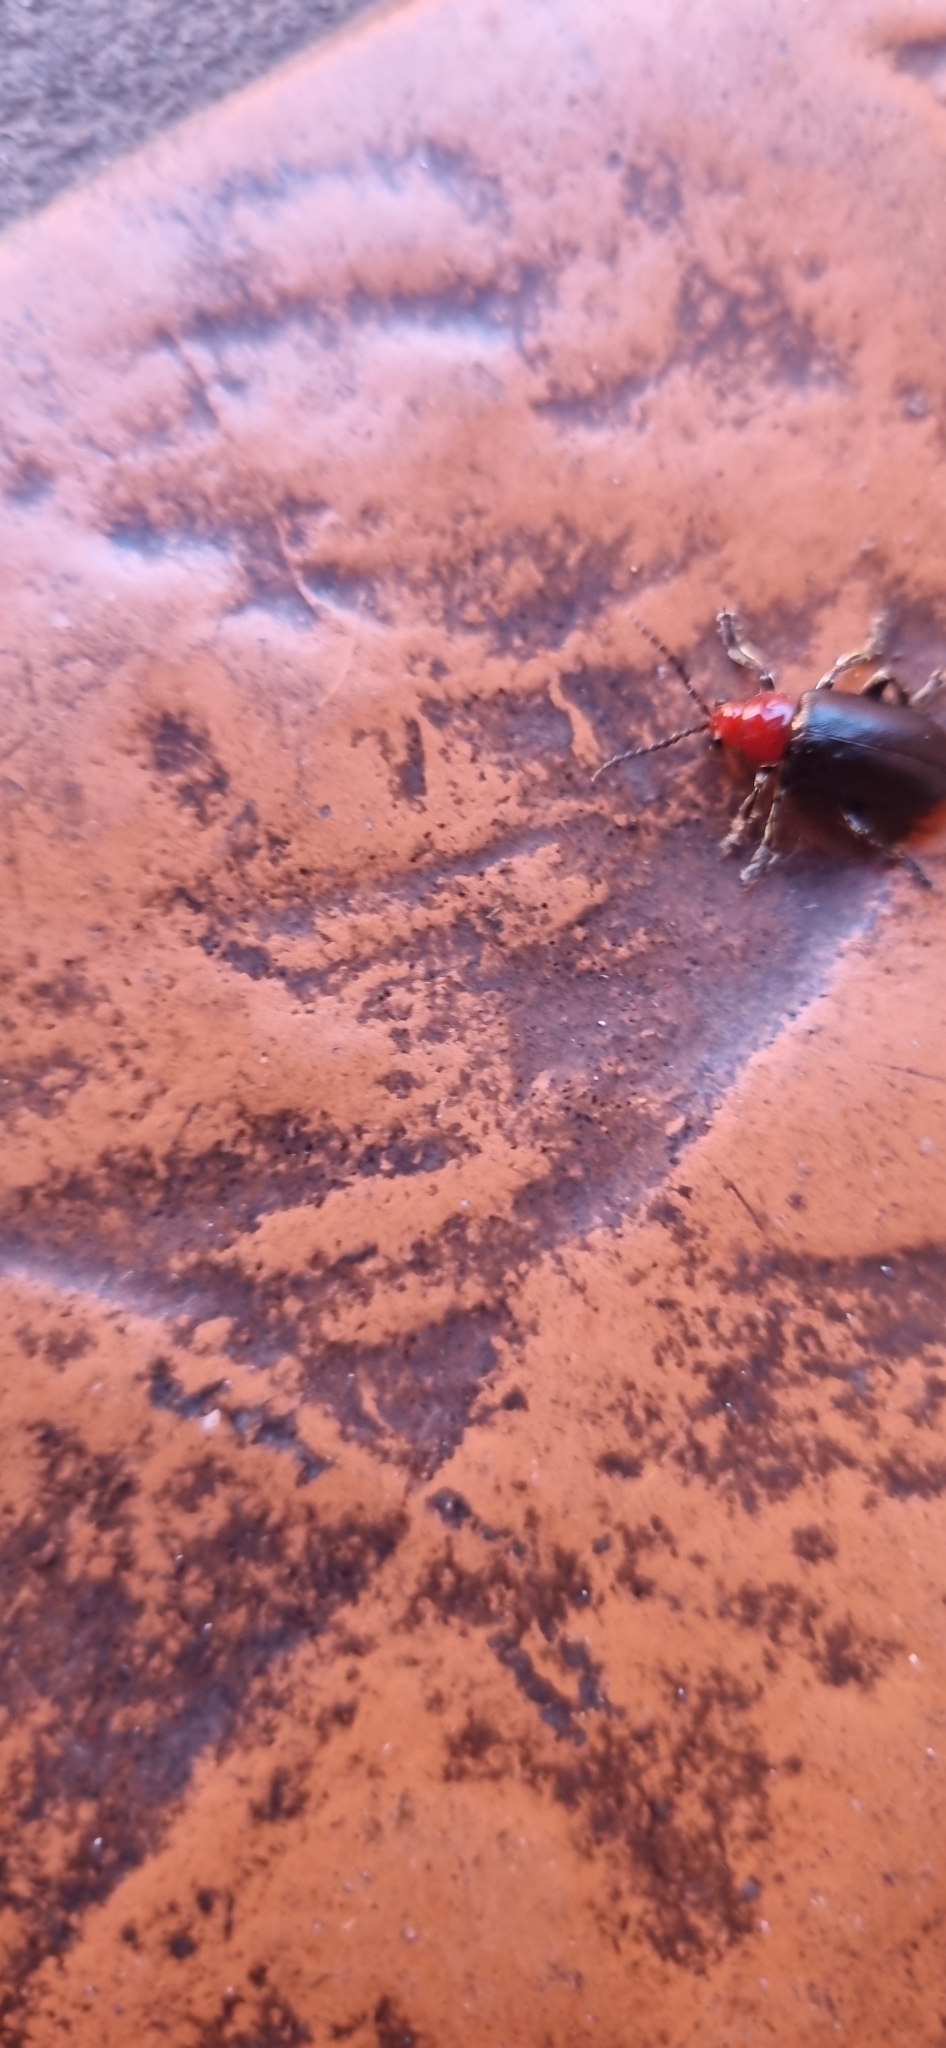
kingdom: Animalia
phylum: Arthropoda
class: Insecta
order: Coleoptera
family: Chrysomelidae
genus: Cacoscelis
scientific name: Cacoscelis
